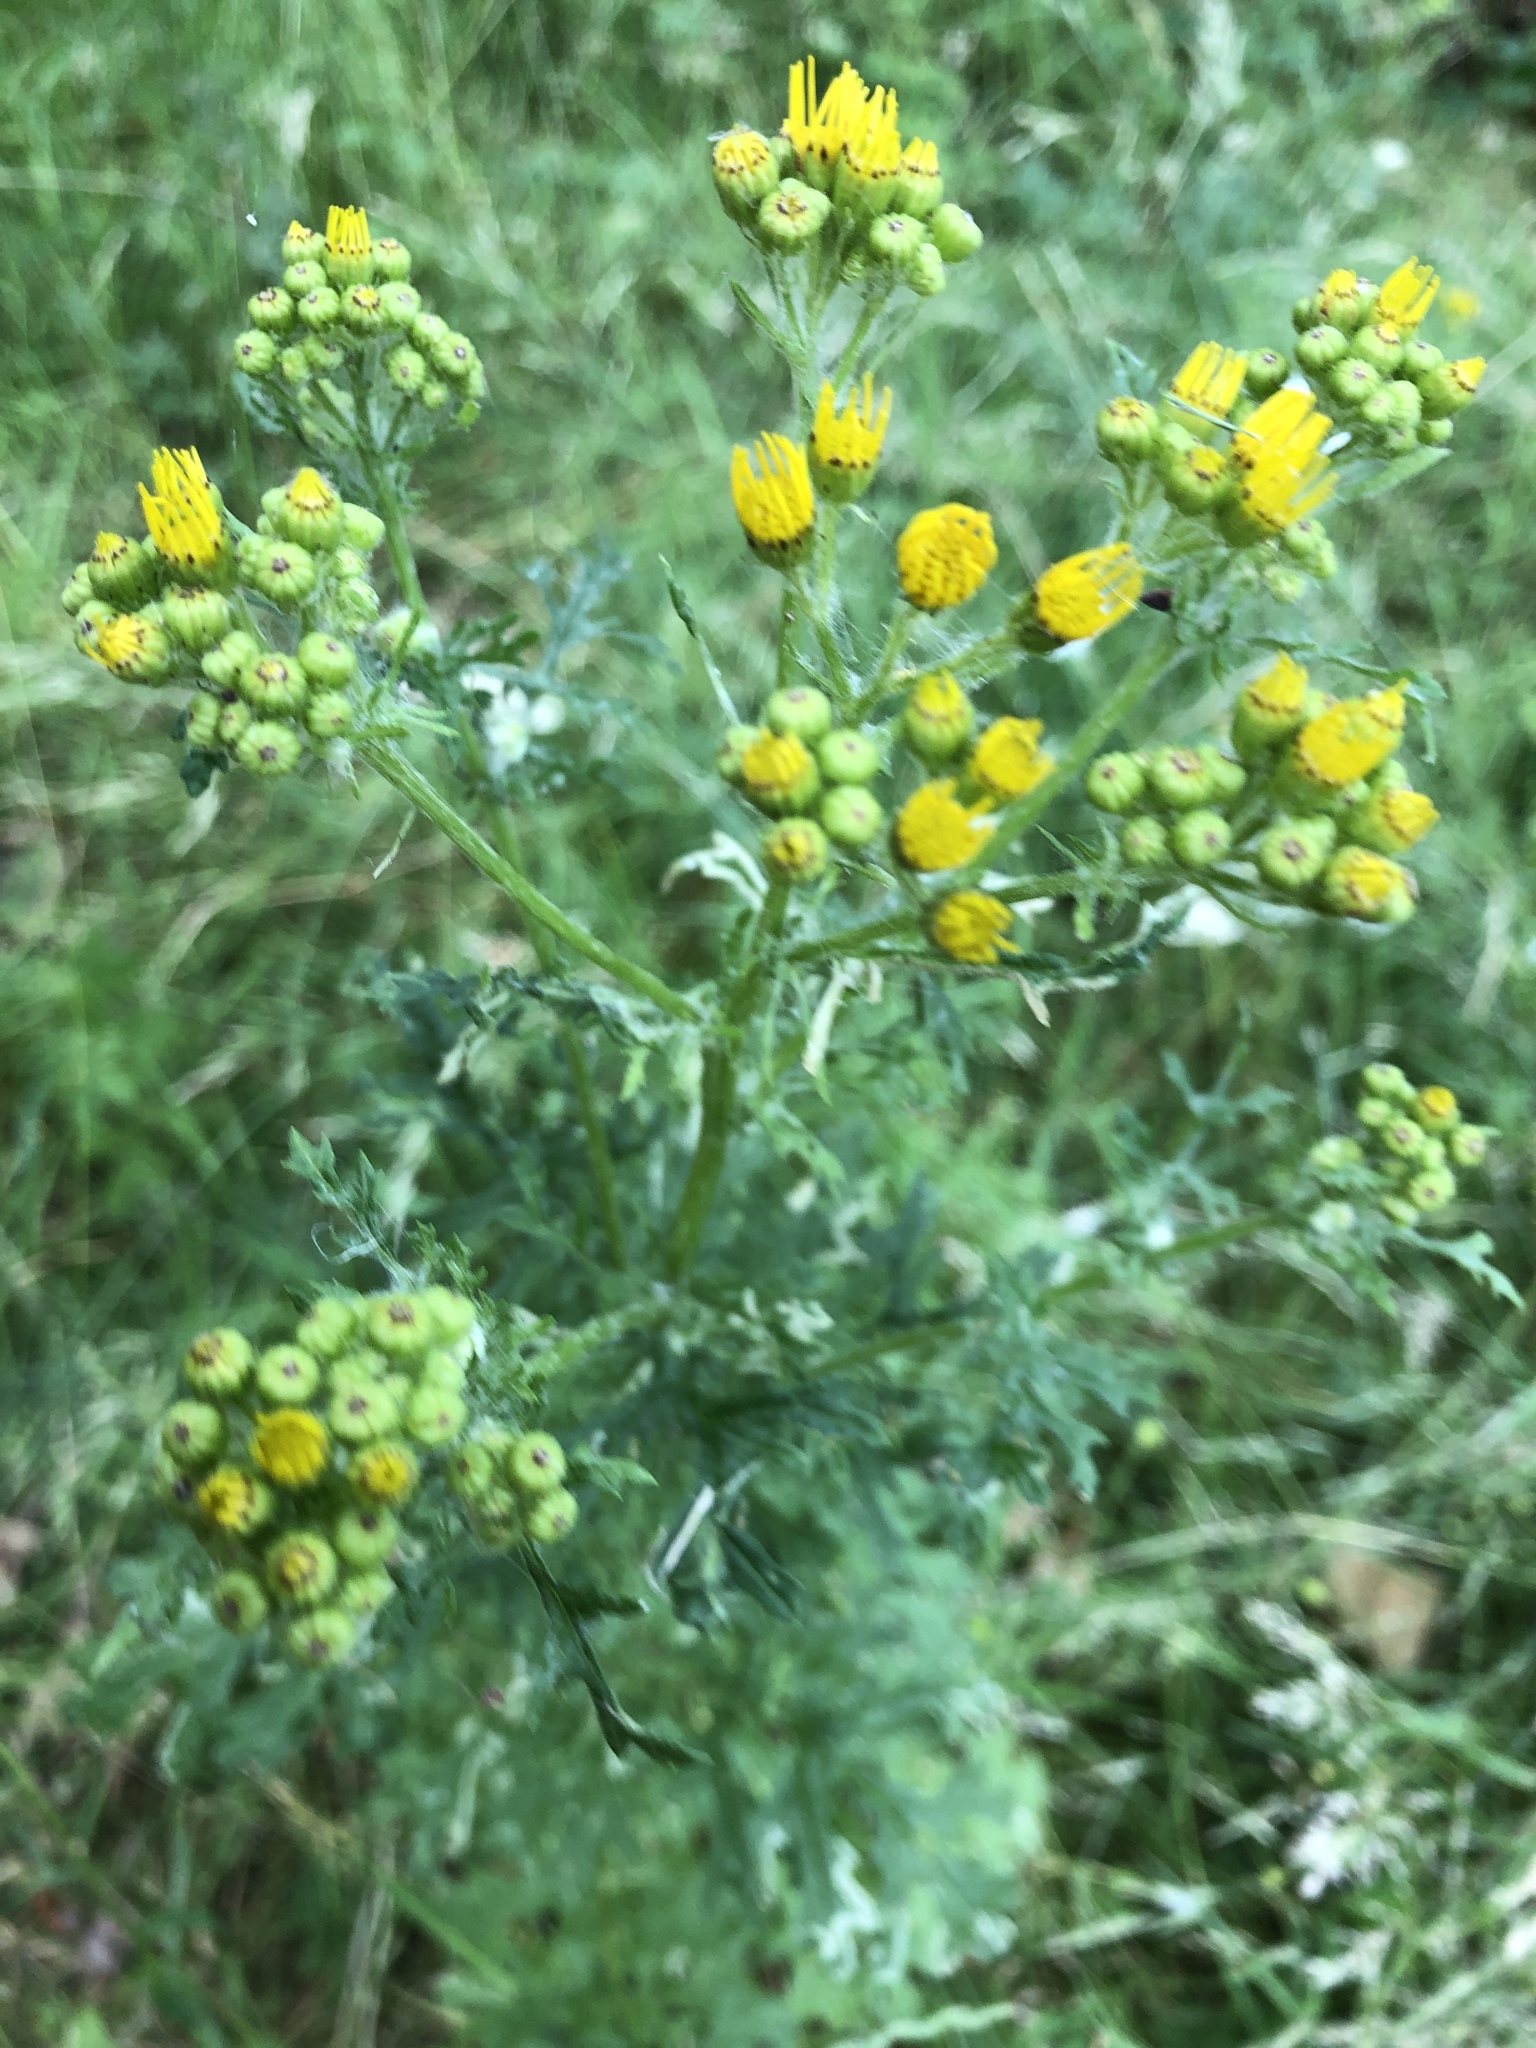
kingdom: Plantae
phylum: Tracheophyta
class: Magnoliopsida
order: Asterales
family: Asteraceae
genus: Jacobaea
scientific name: Jacobaea vulgaris
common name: Stinking willie
